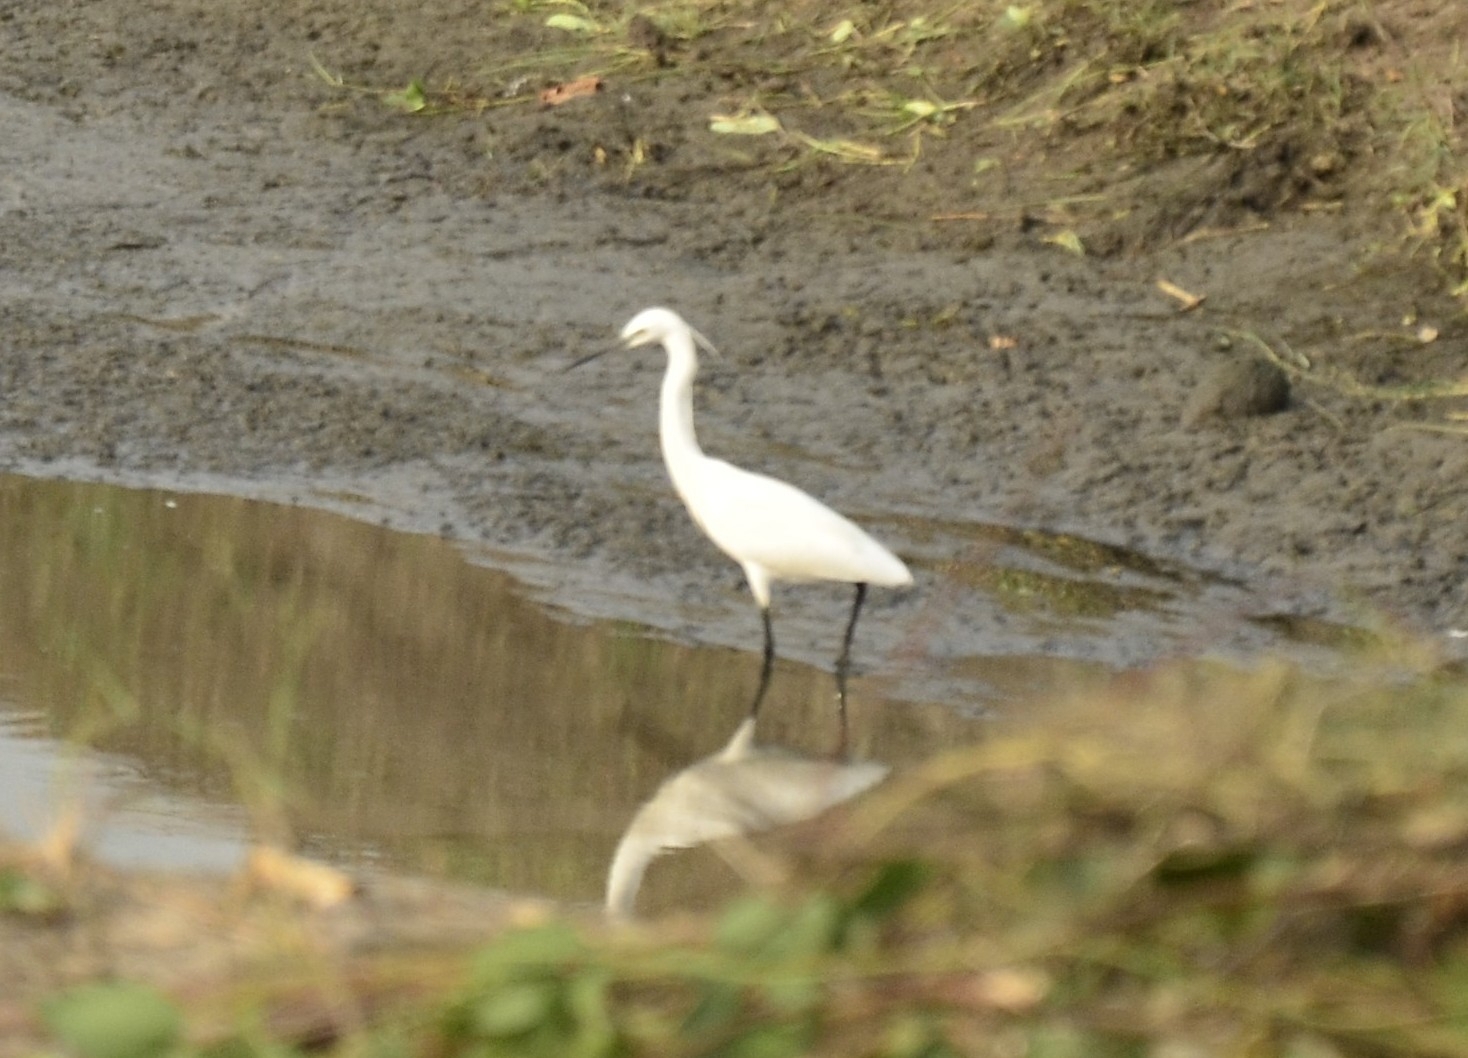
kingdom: Animalia
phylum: Chordata
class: Aves
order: Pelecaniformes
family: Ardeidae
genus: Egretta
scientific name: Egretta garzetta
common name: Little egret
